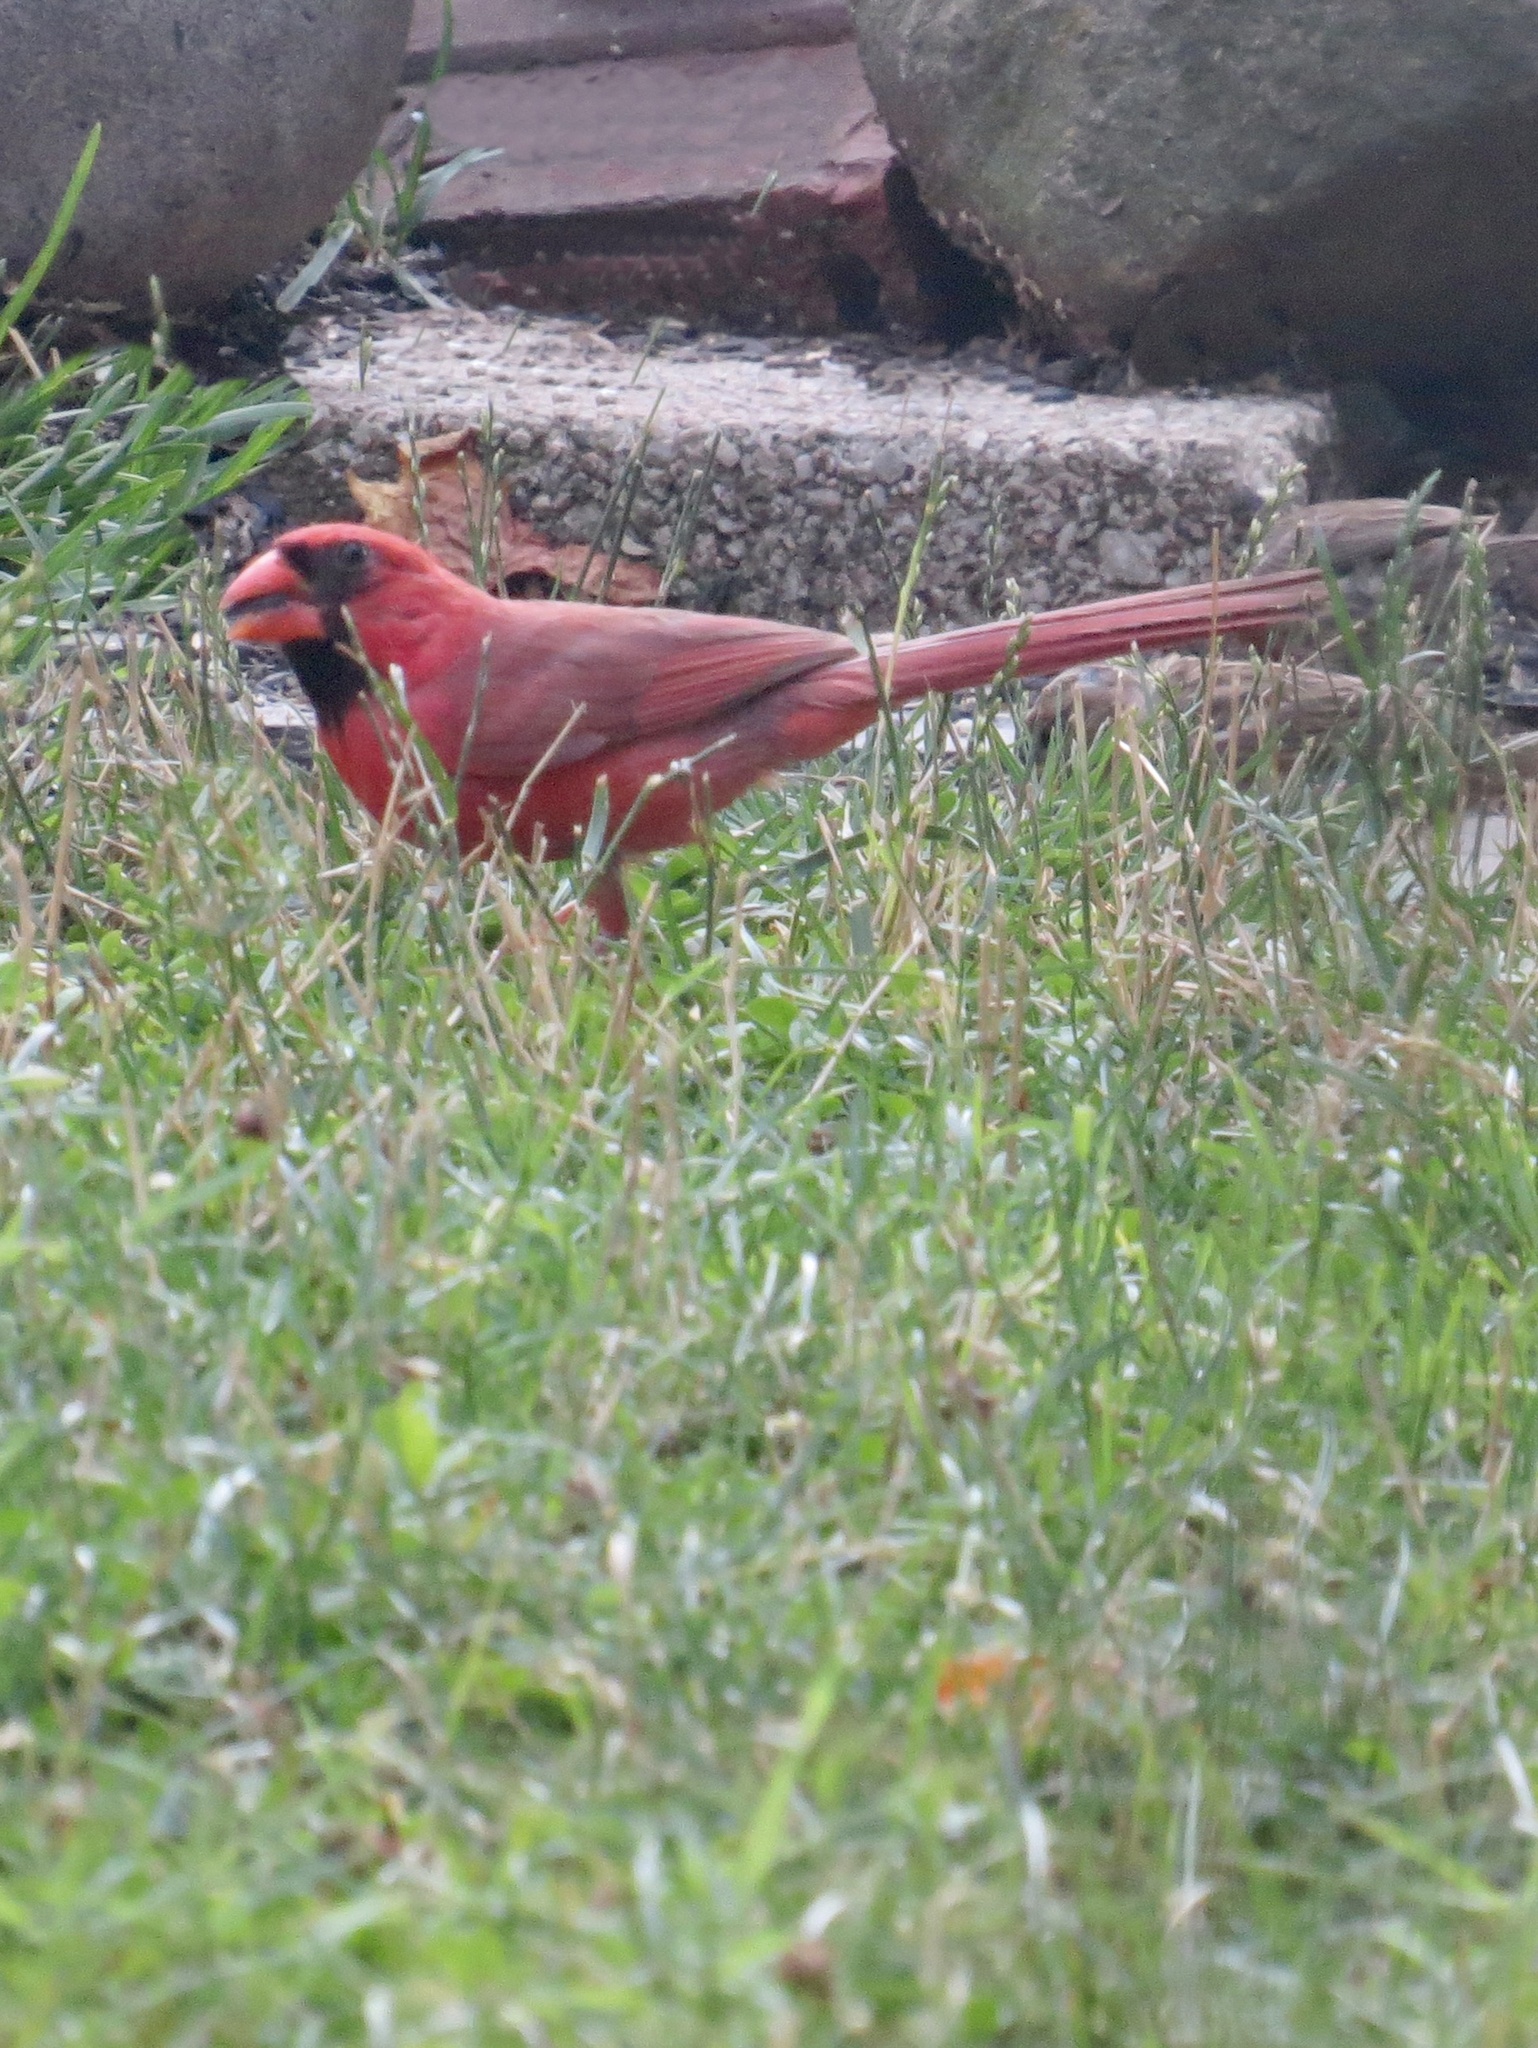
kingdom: Animalia
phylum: Chordata
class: Aves
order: Passeriformes
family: Cardinalidae
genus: Cardinalis
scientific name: Cardinalis cardinalis
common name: Northern cardinal
